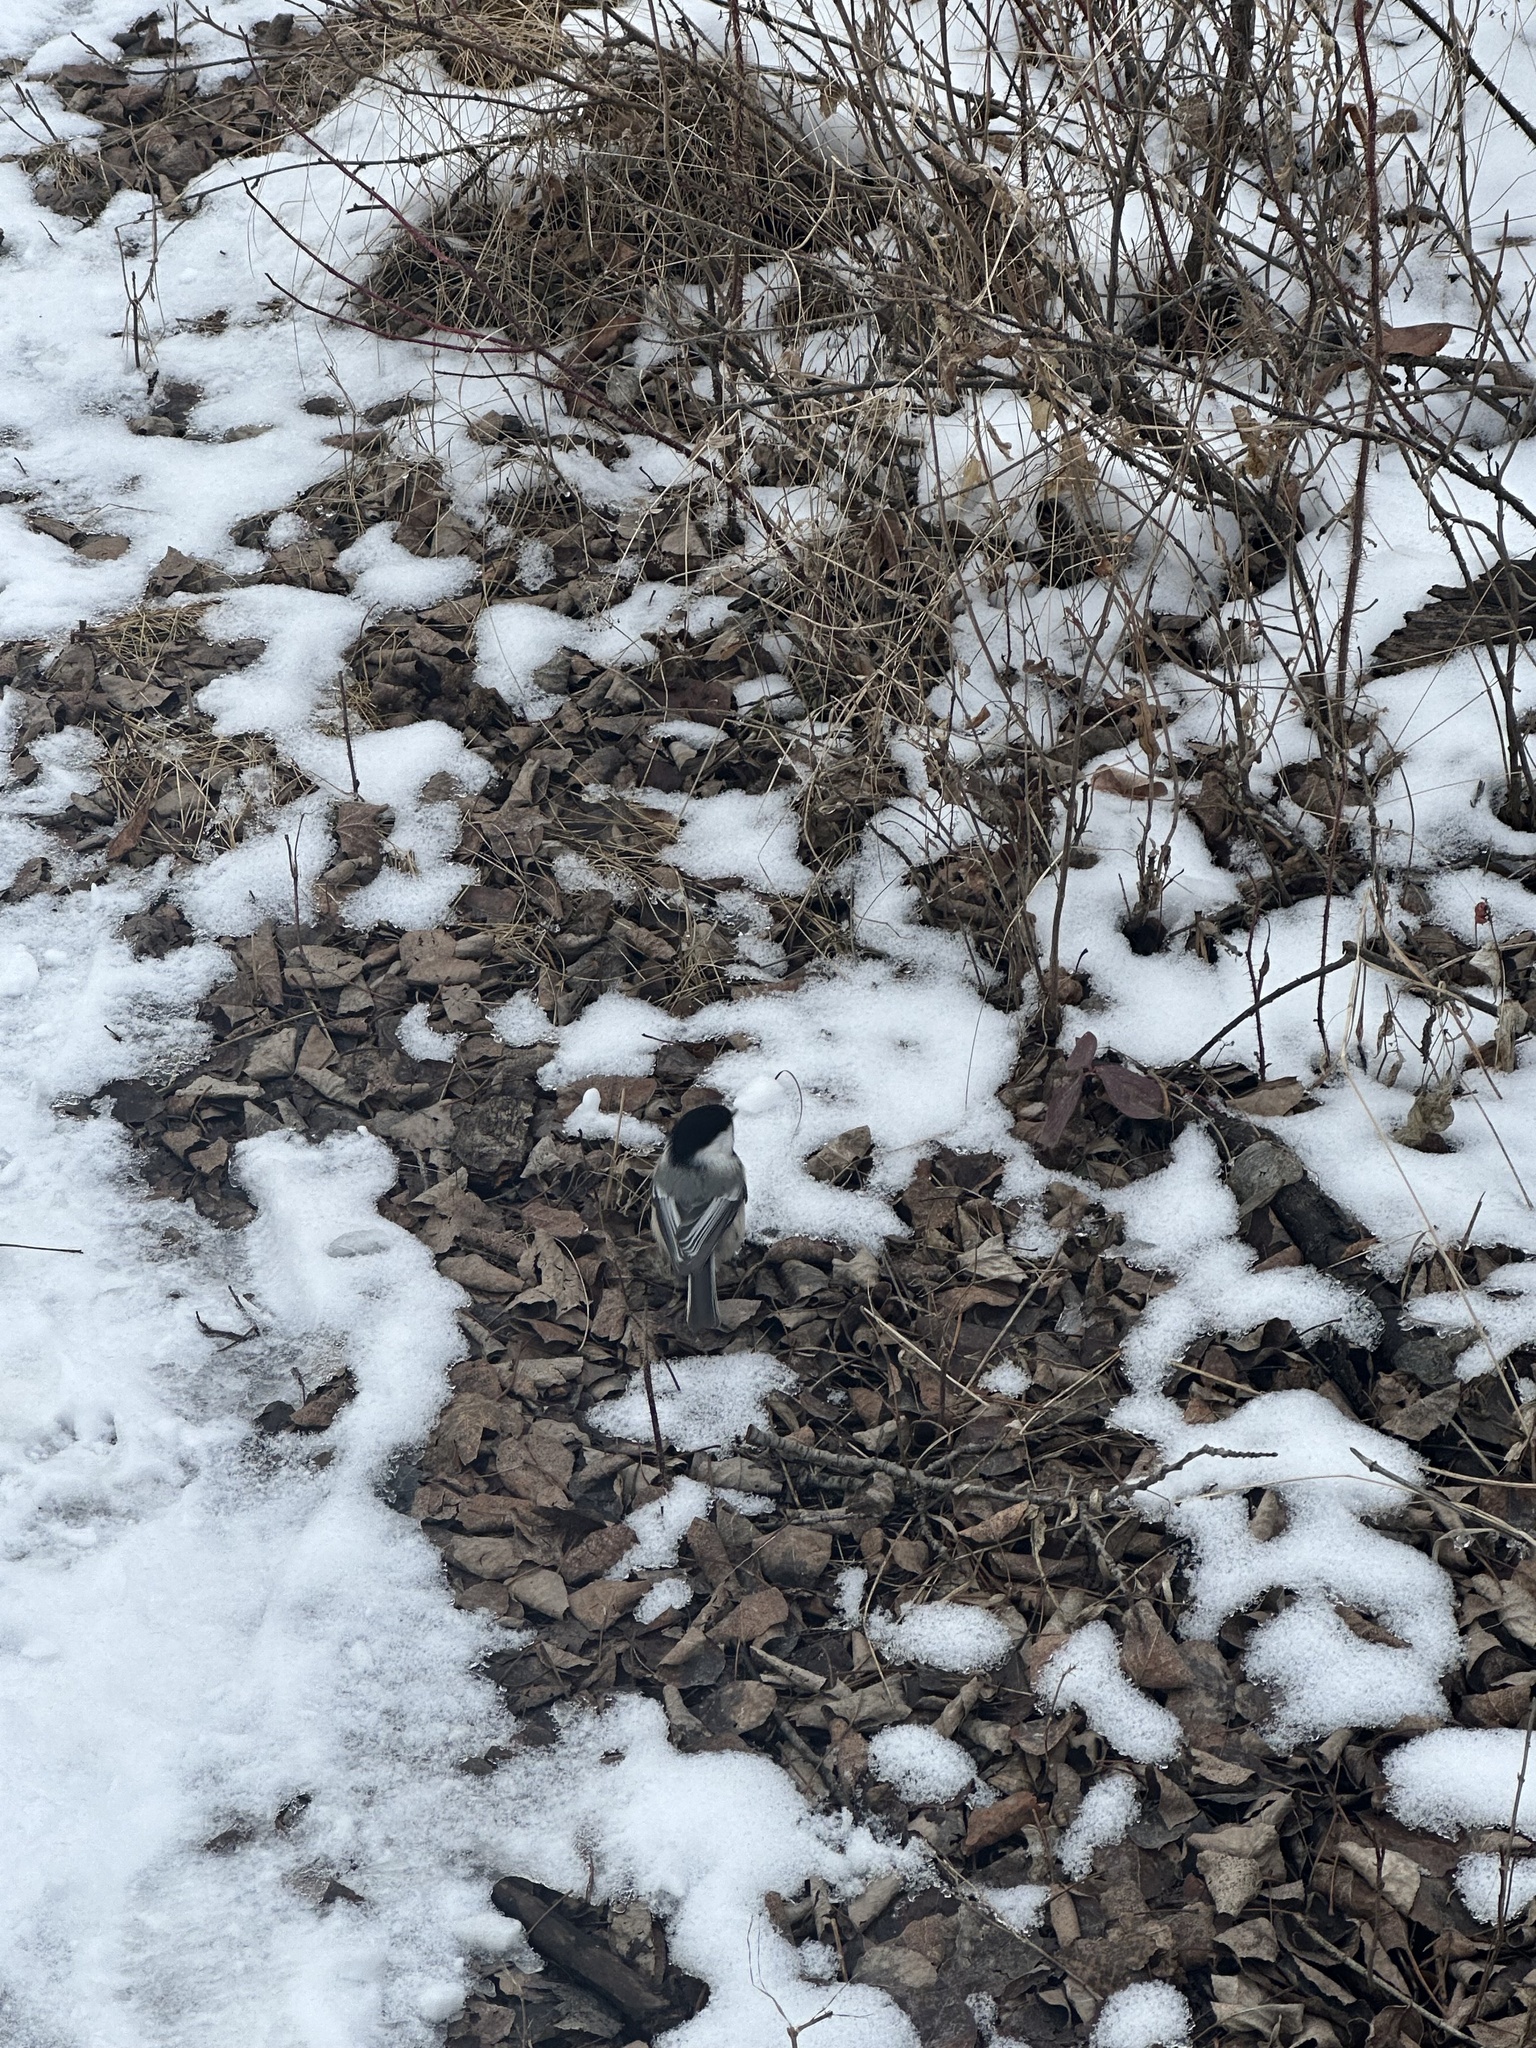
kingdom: Animalia
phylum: Chordata
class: Aves
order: Passeriformes
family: Paridae
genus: Poecile
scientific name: Poecile atricapillus
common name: Black-capped chickadee
